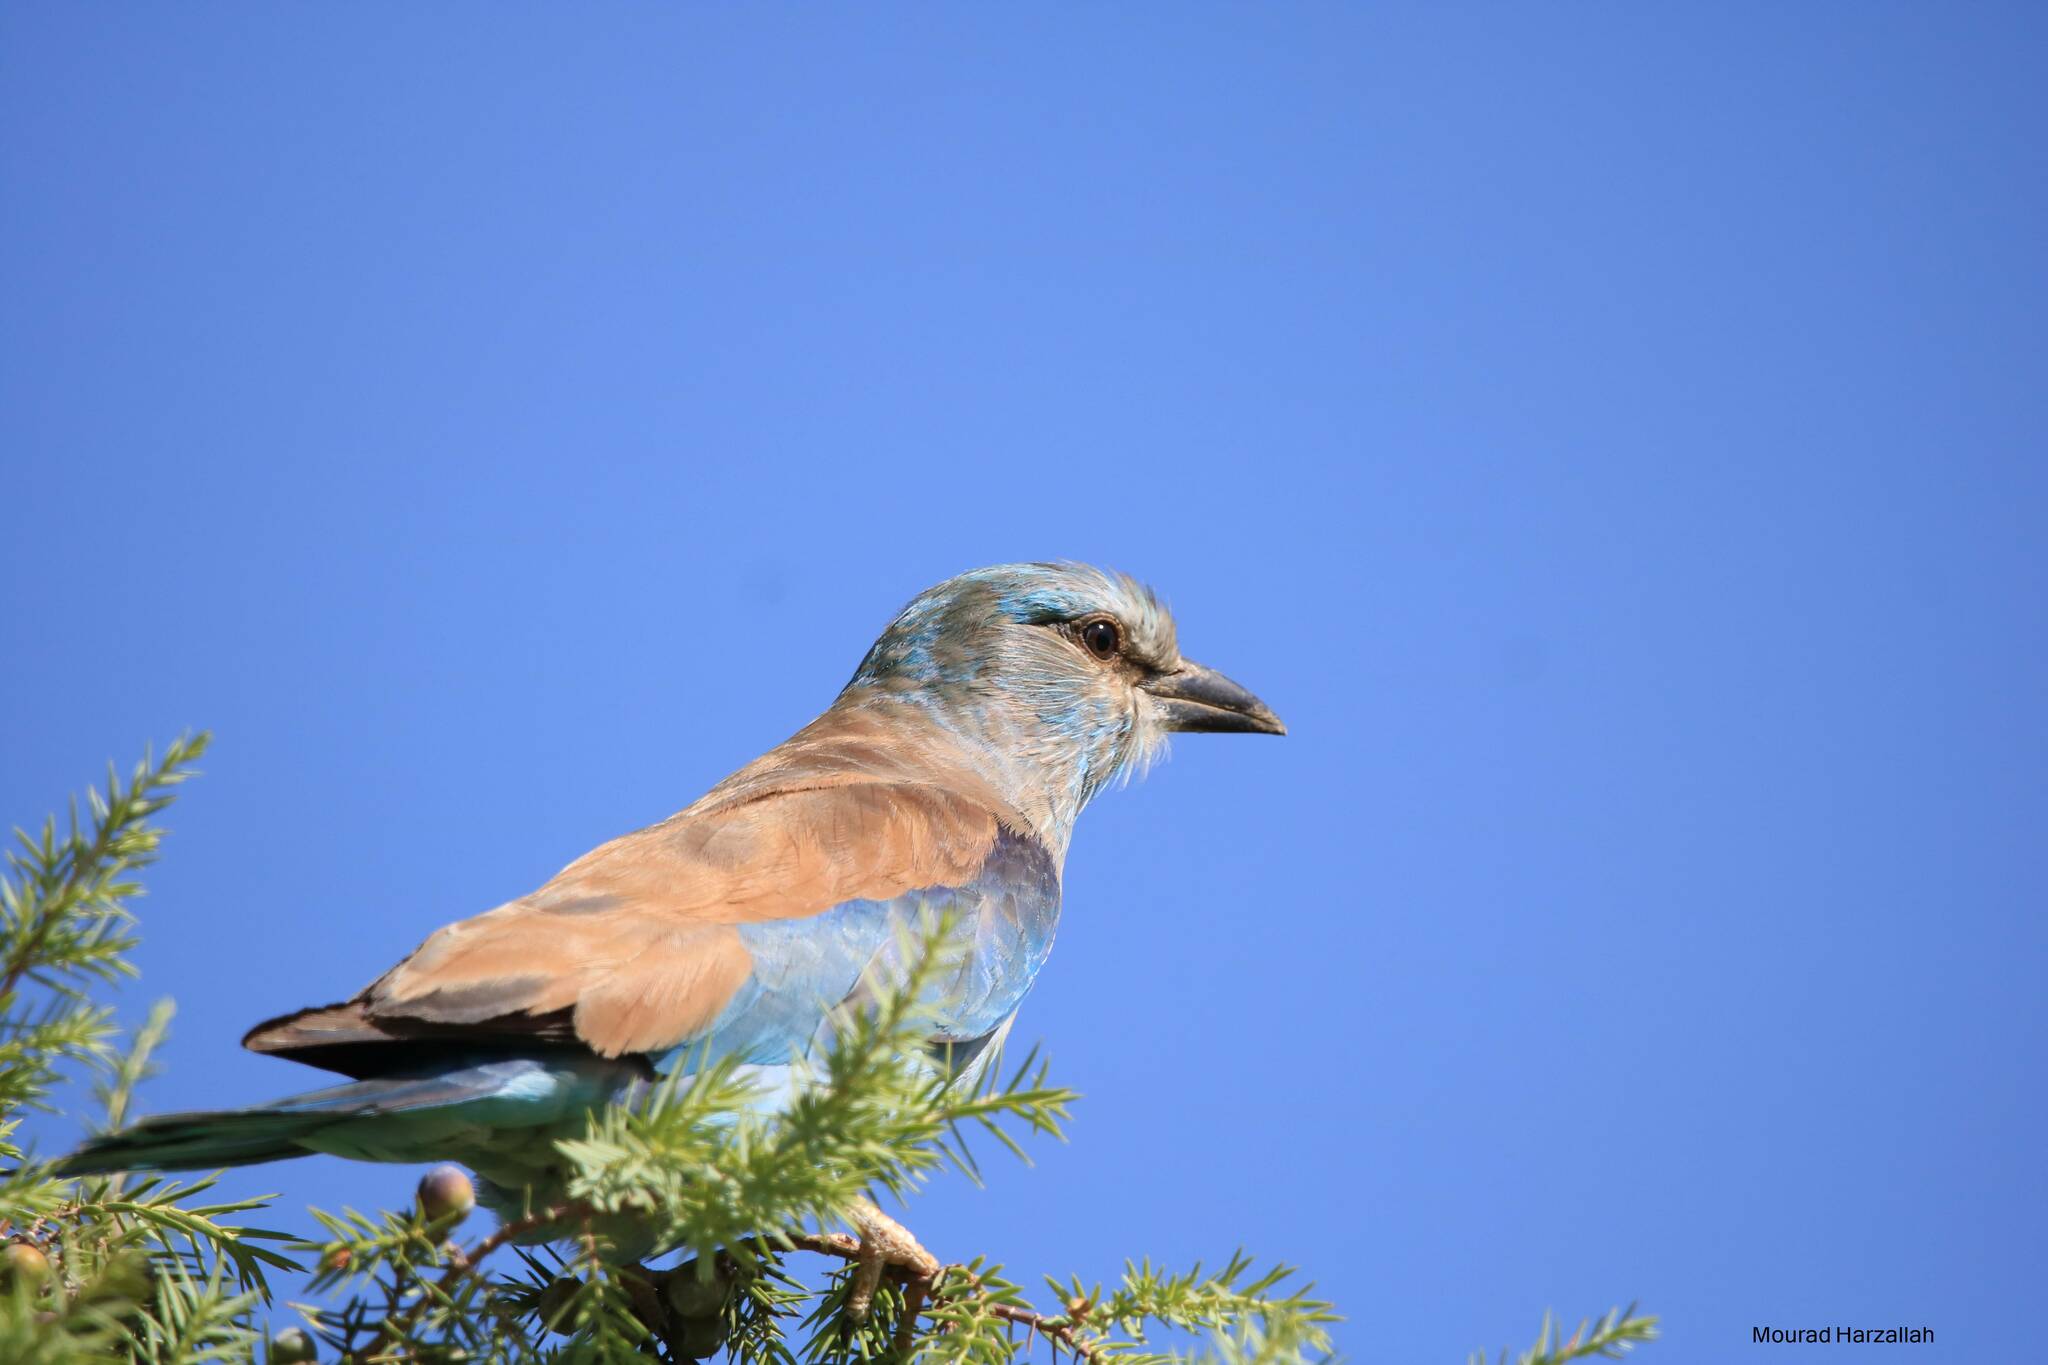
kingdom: Animalia
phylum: Chordata
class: Aves
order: Coraciiformes
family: Coraciidae
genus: Coracias
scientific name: Coracias garrulus
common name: European roller
